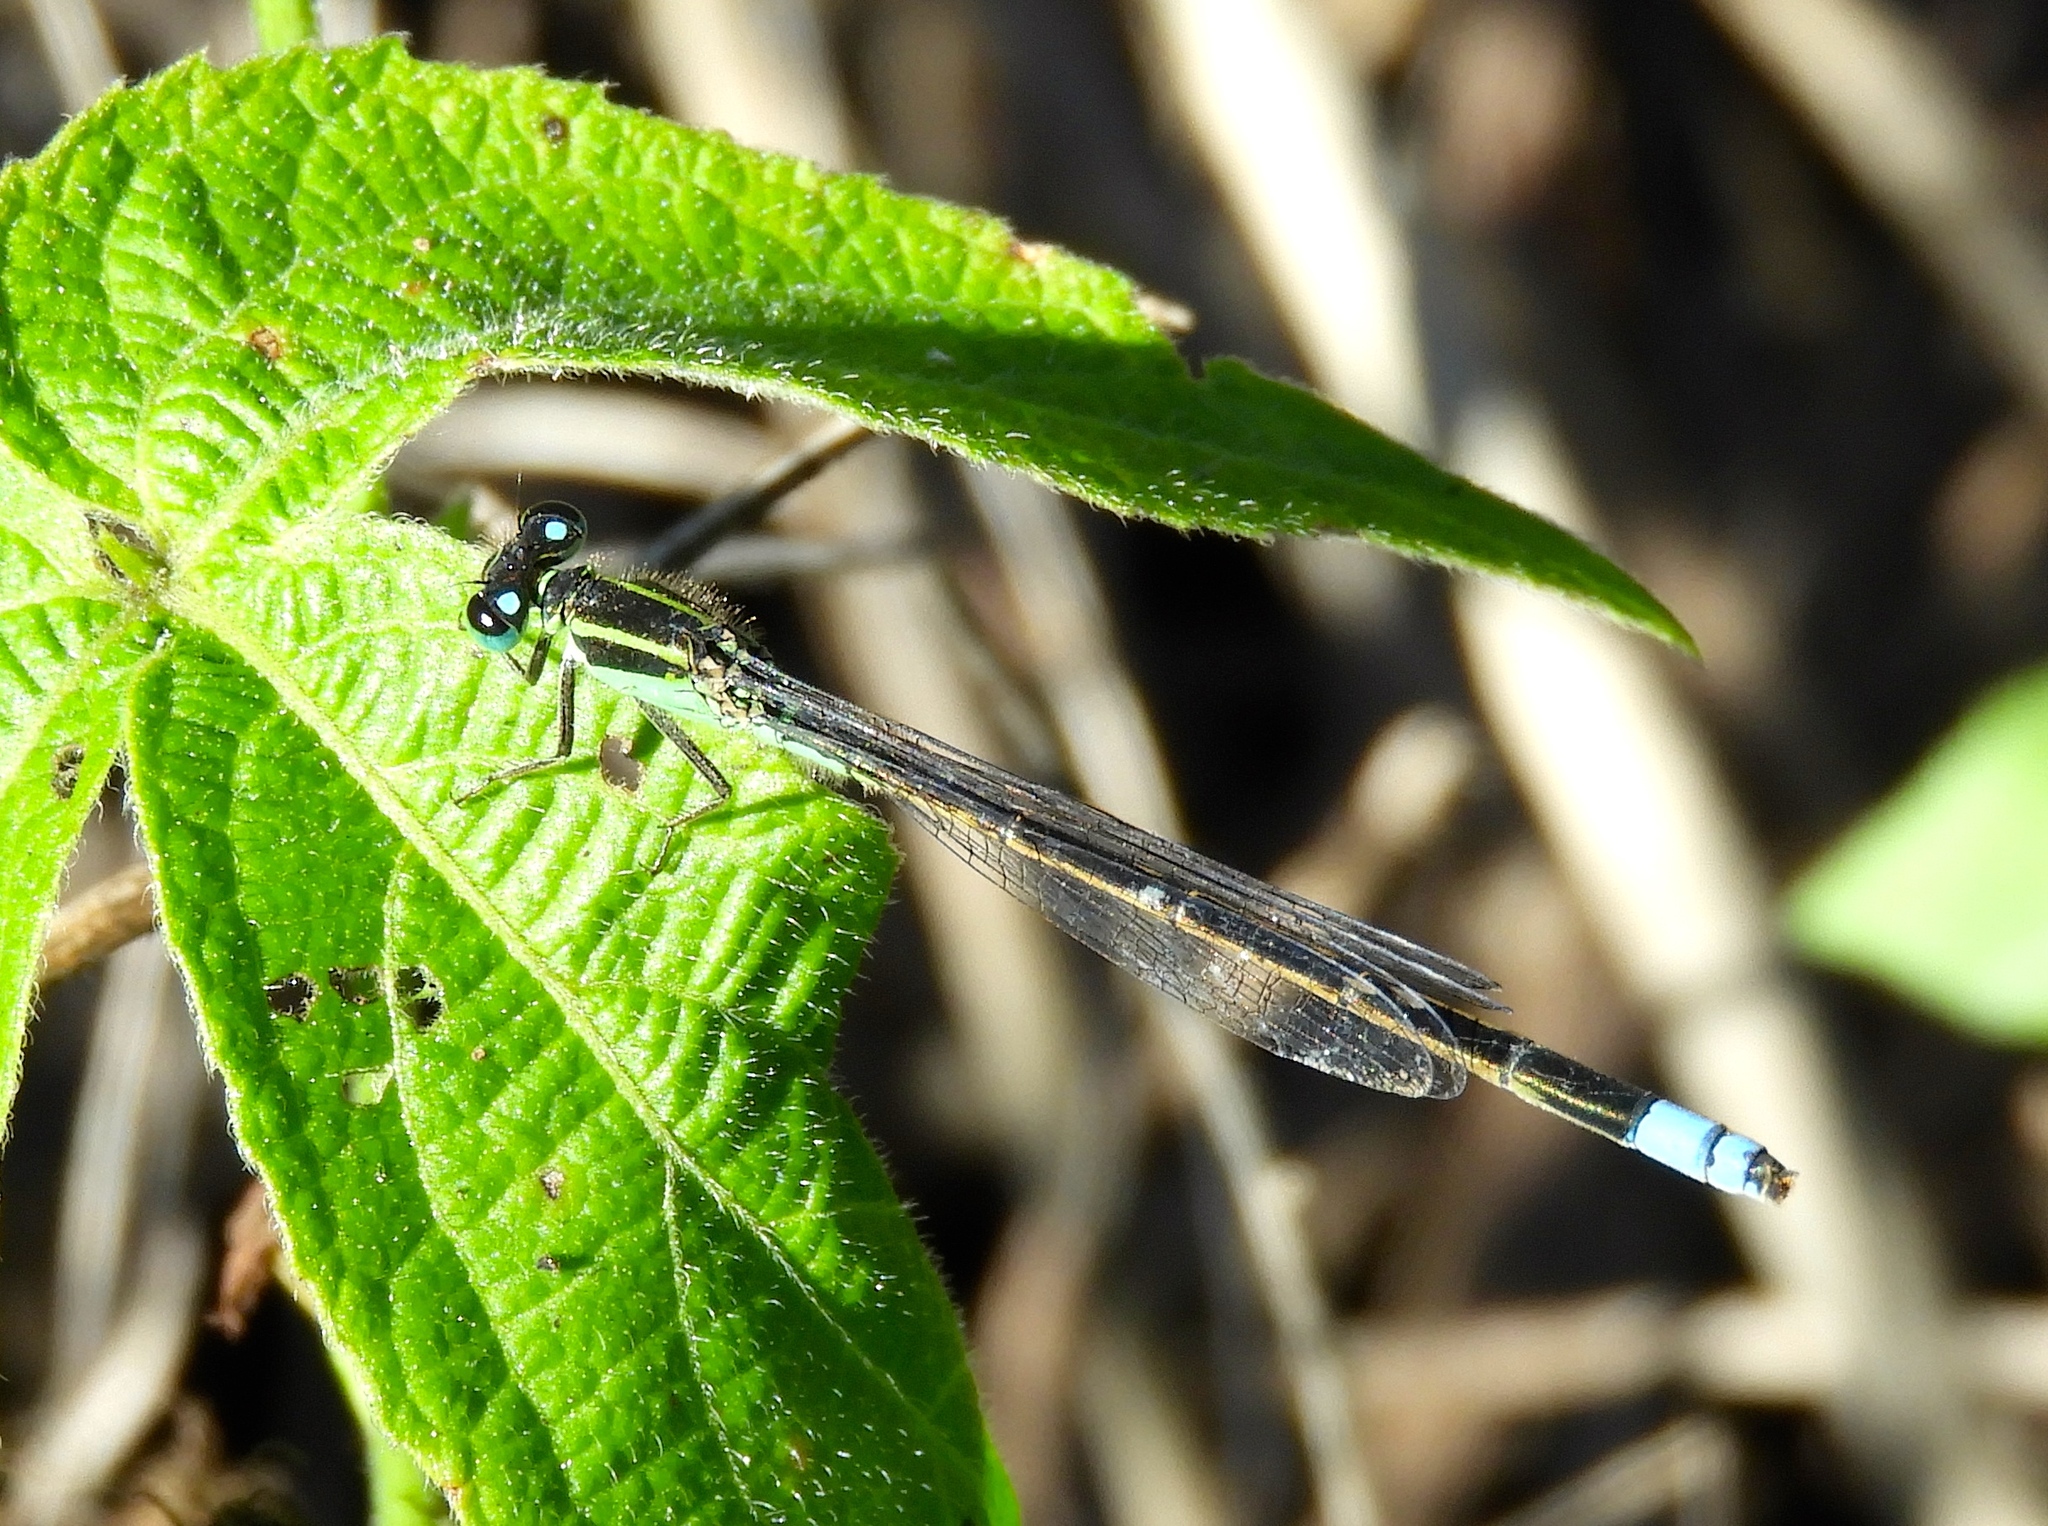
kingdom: Animalia
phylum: Arthropoda
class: Insecta
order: Odonata
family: Coenagrionidae
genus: Ischnura
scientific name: Ischnura ramburii
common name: Rambur's forktail
